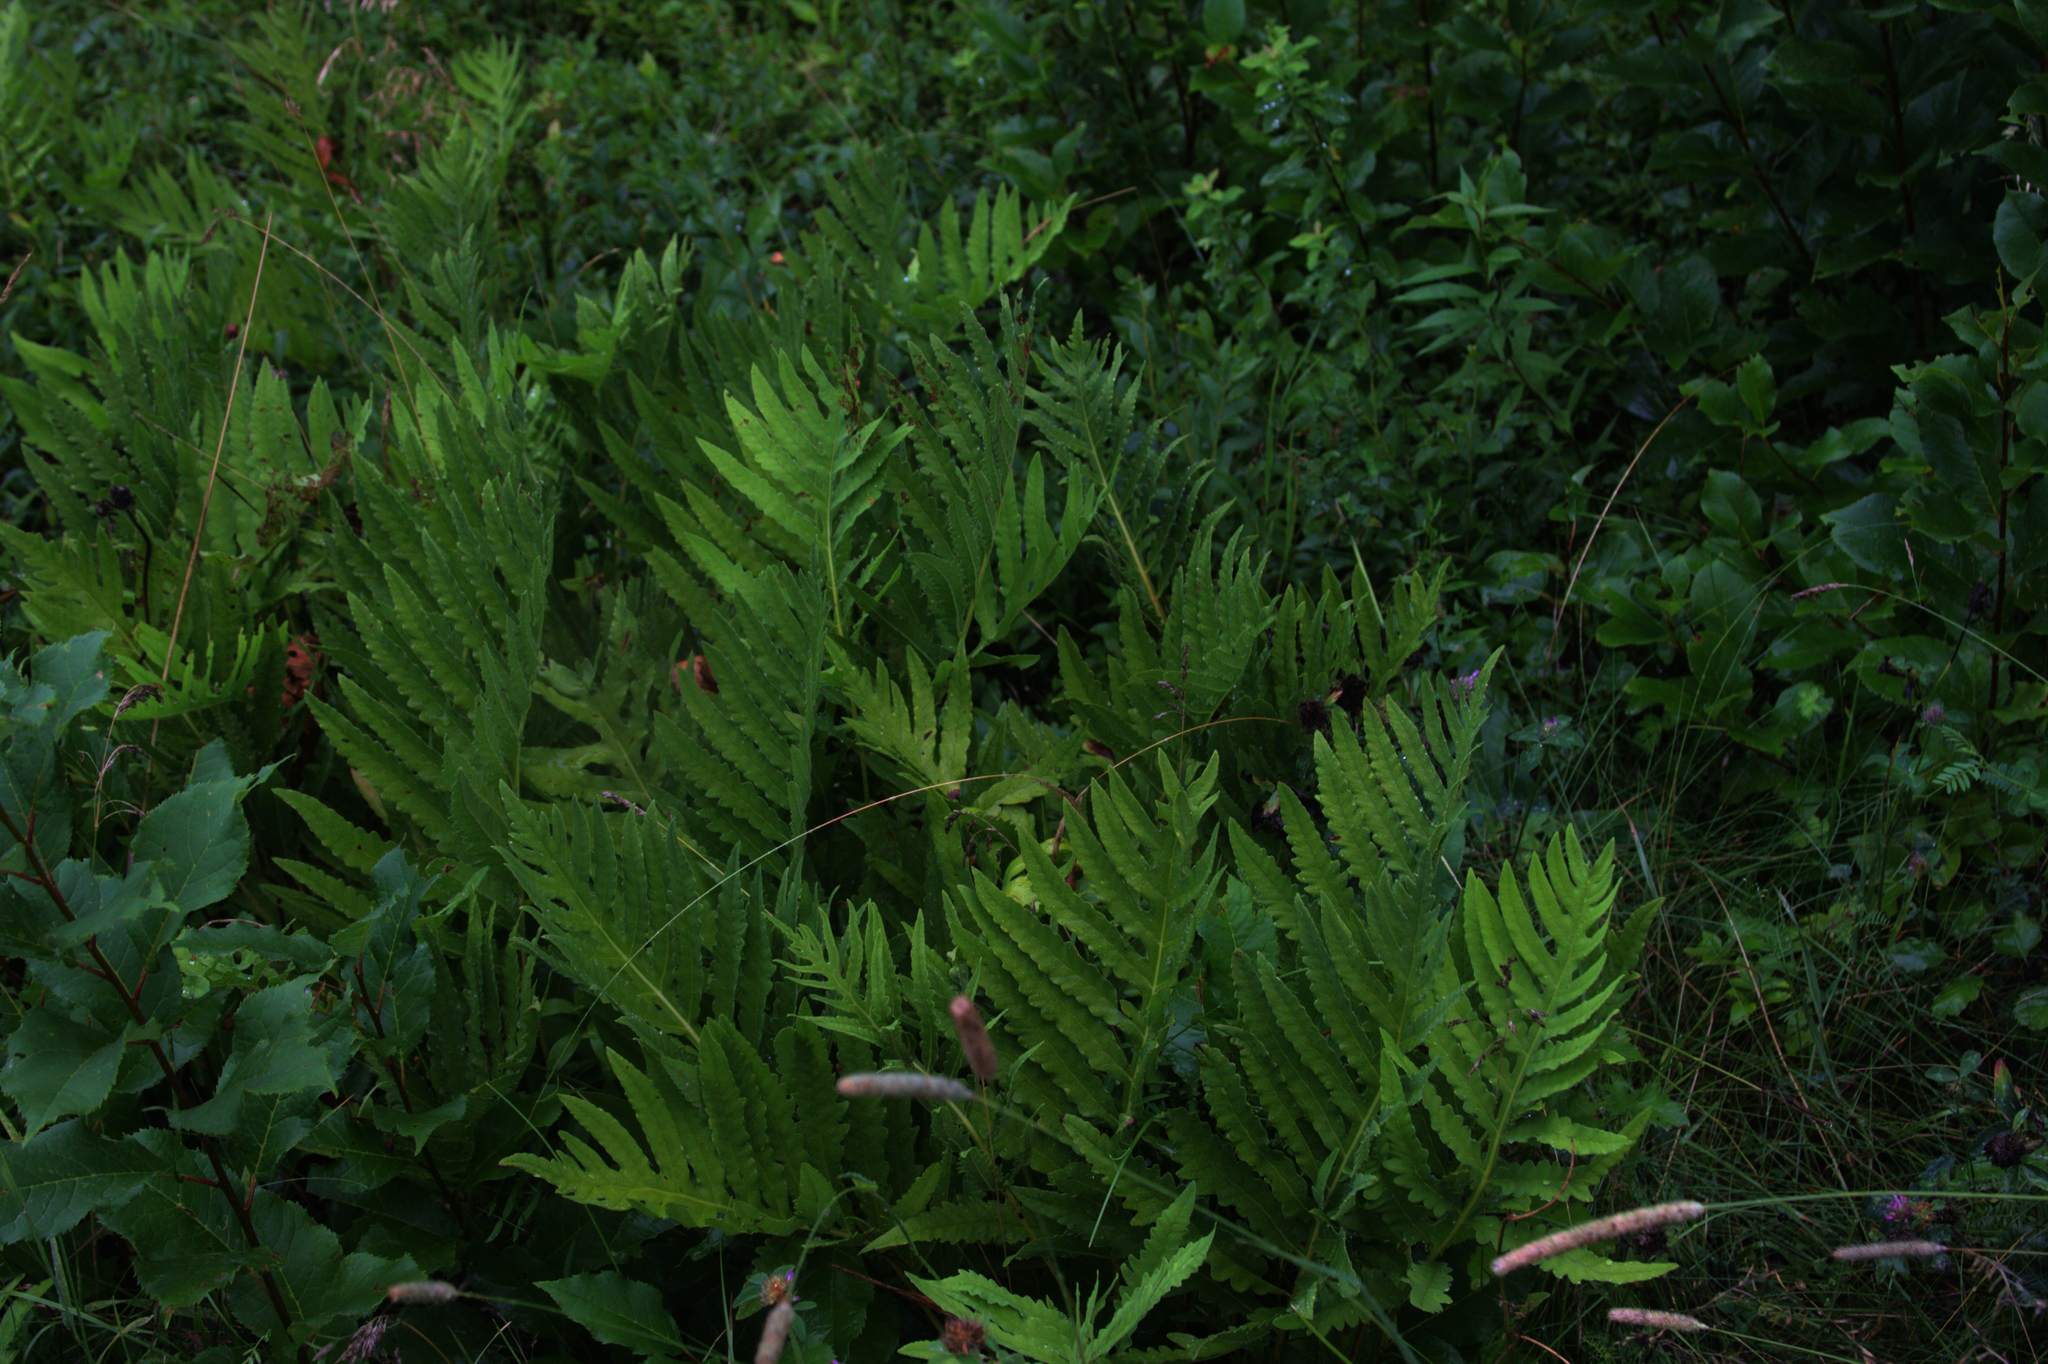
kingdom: Plantae
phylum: Tracheophyta
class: Polypodiopsida
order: Polypodiales
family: Onocleaceae
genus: Onoclea
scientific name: Onoclea sensibilis
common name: Sensitive fern
